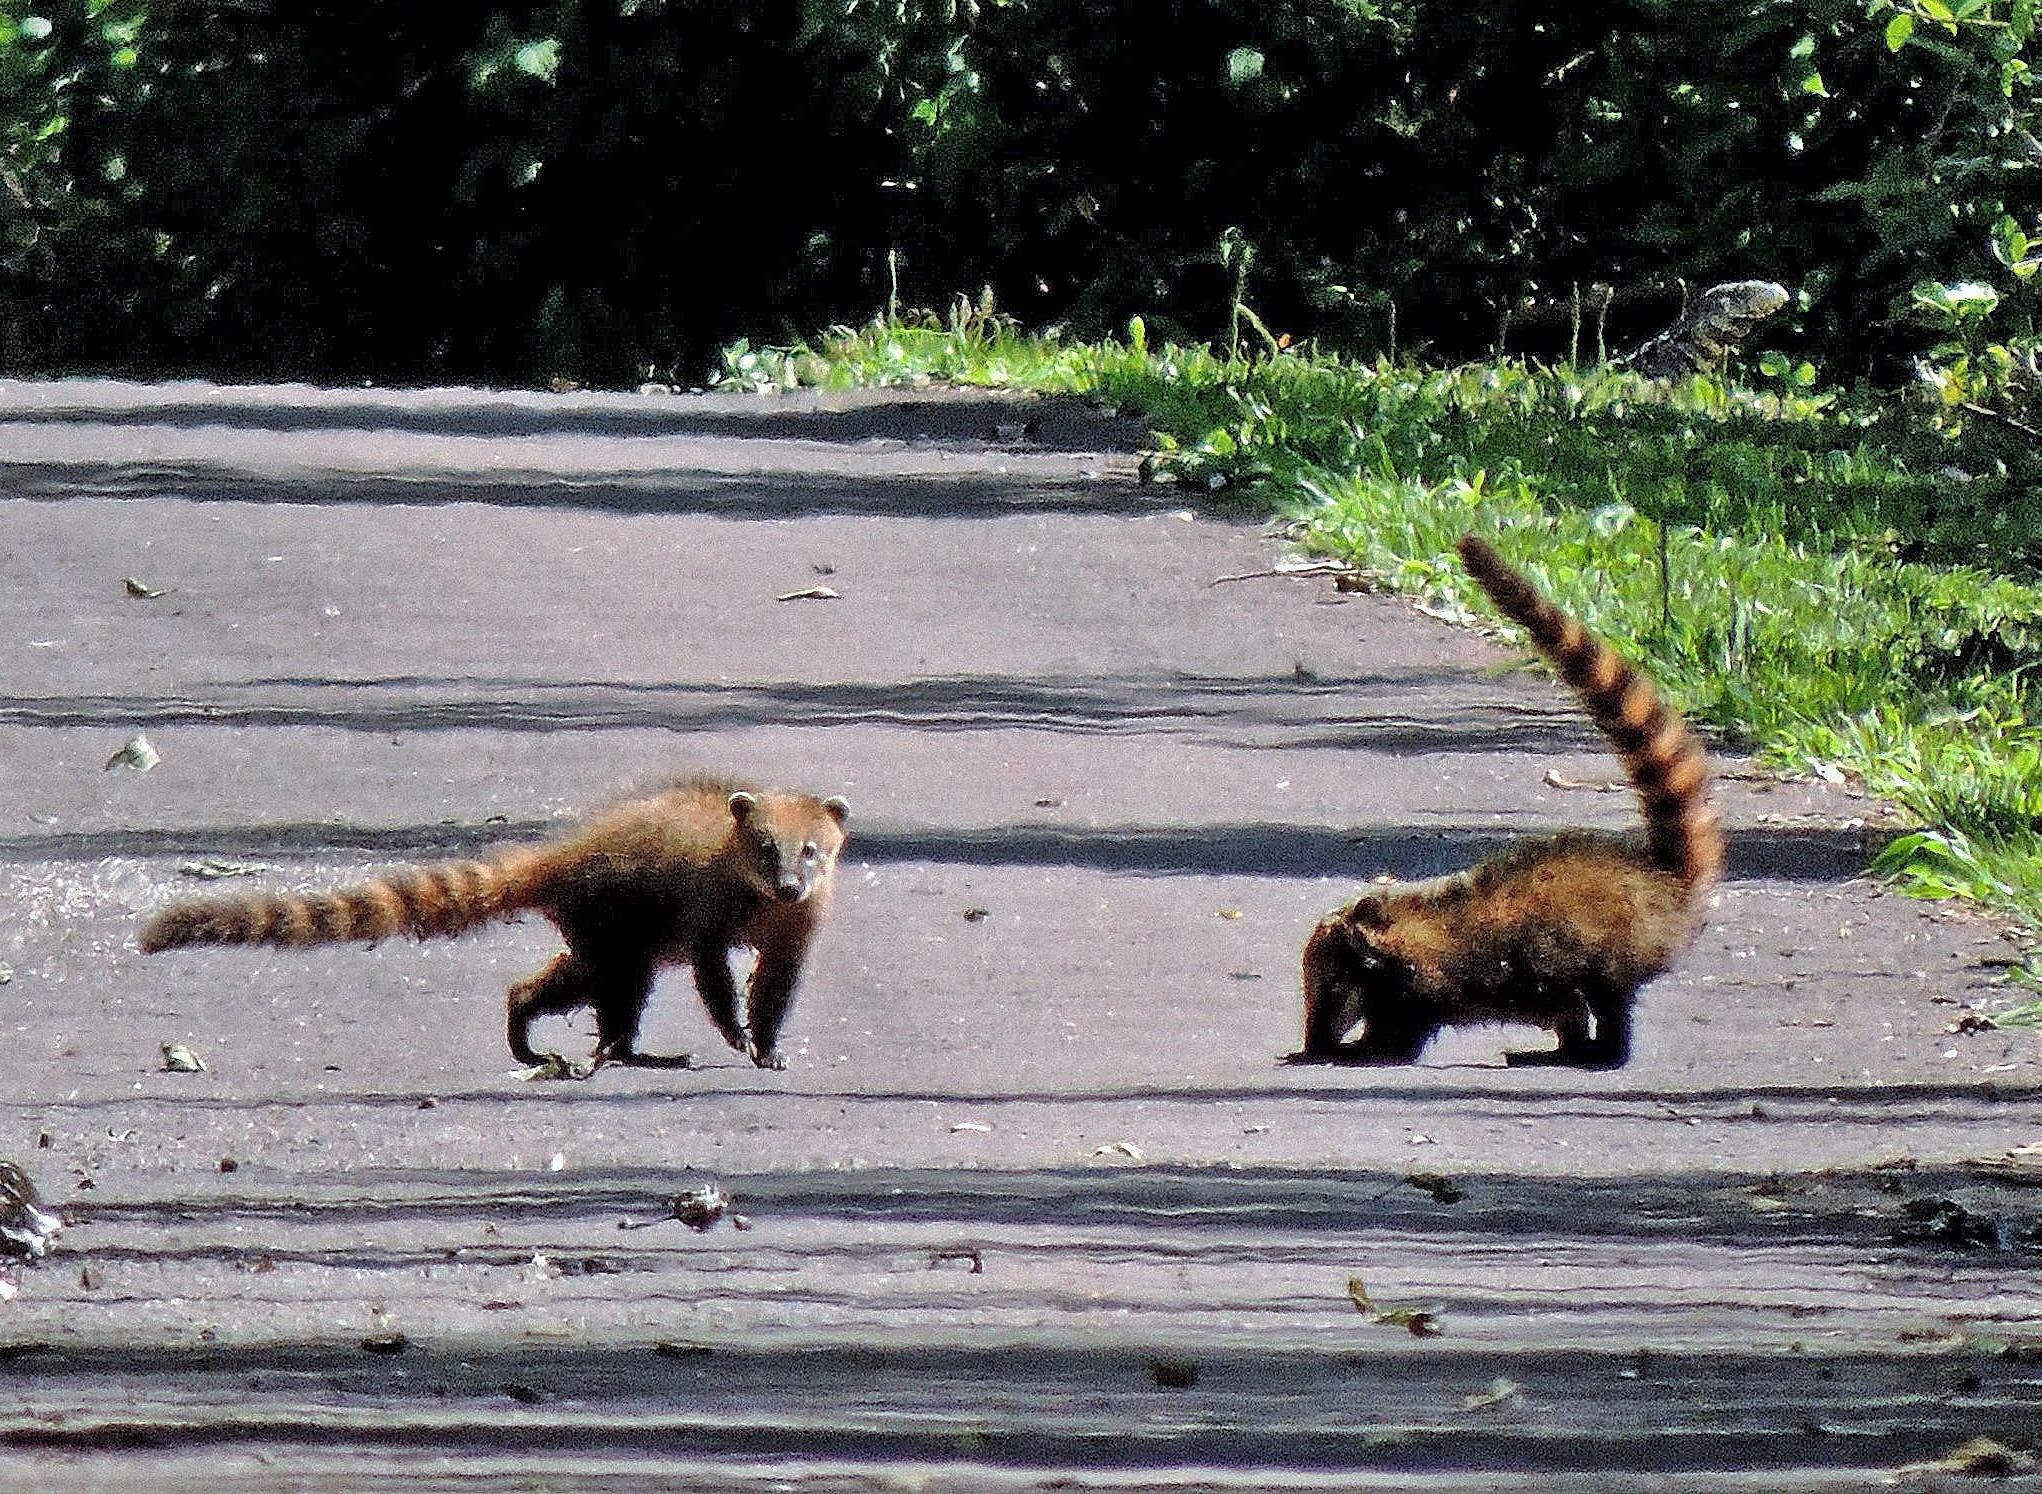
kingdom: Animalia
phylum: Chordata
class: Mammalia
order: Carnivora
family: Procyonidae
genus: Nasua
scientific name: Nasua nasua
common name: South american coati
